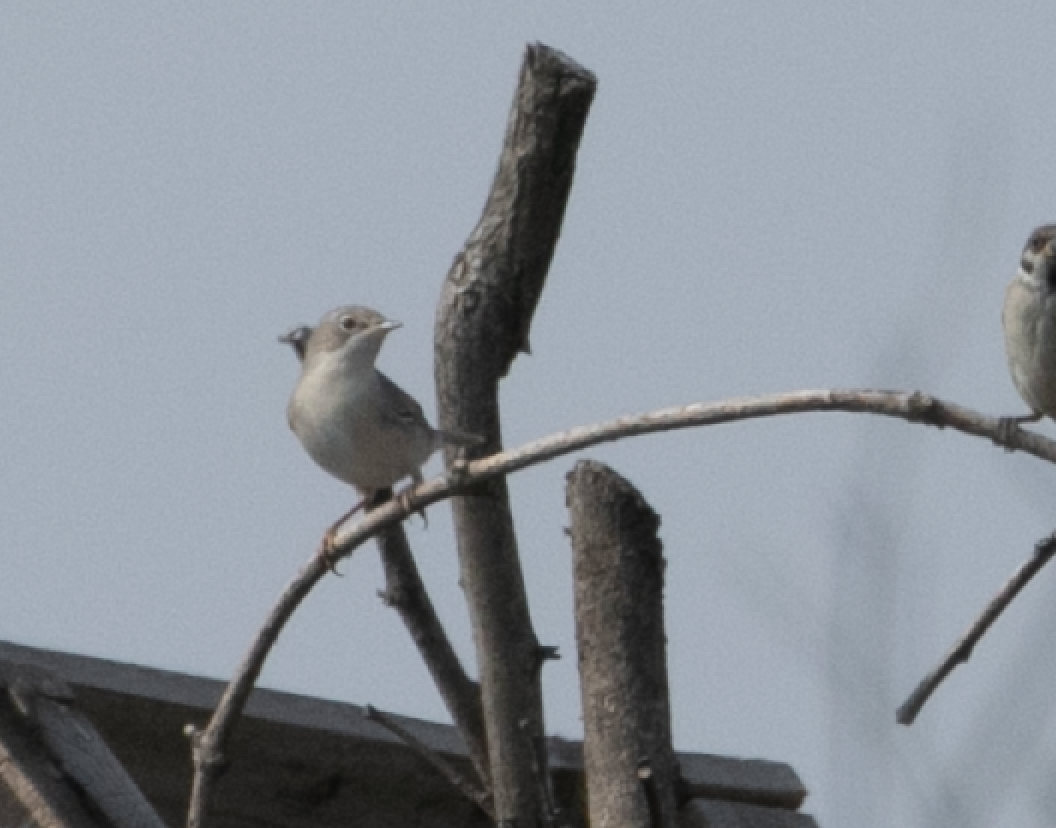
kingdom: Animalia
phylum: Chordata
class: Aves
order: Passeriformes
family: Sylviidae
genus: Sylvia
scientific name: Sylvia communis
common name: Common whitethroat
